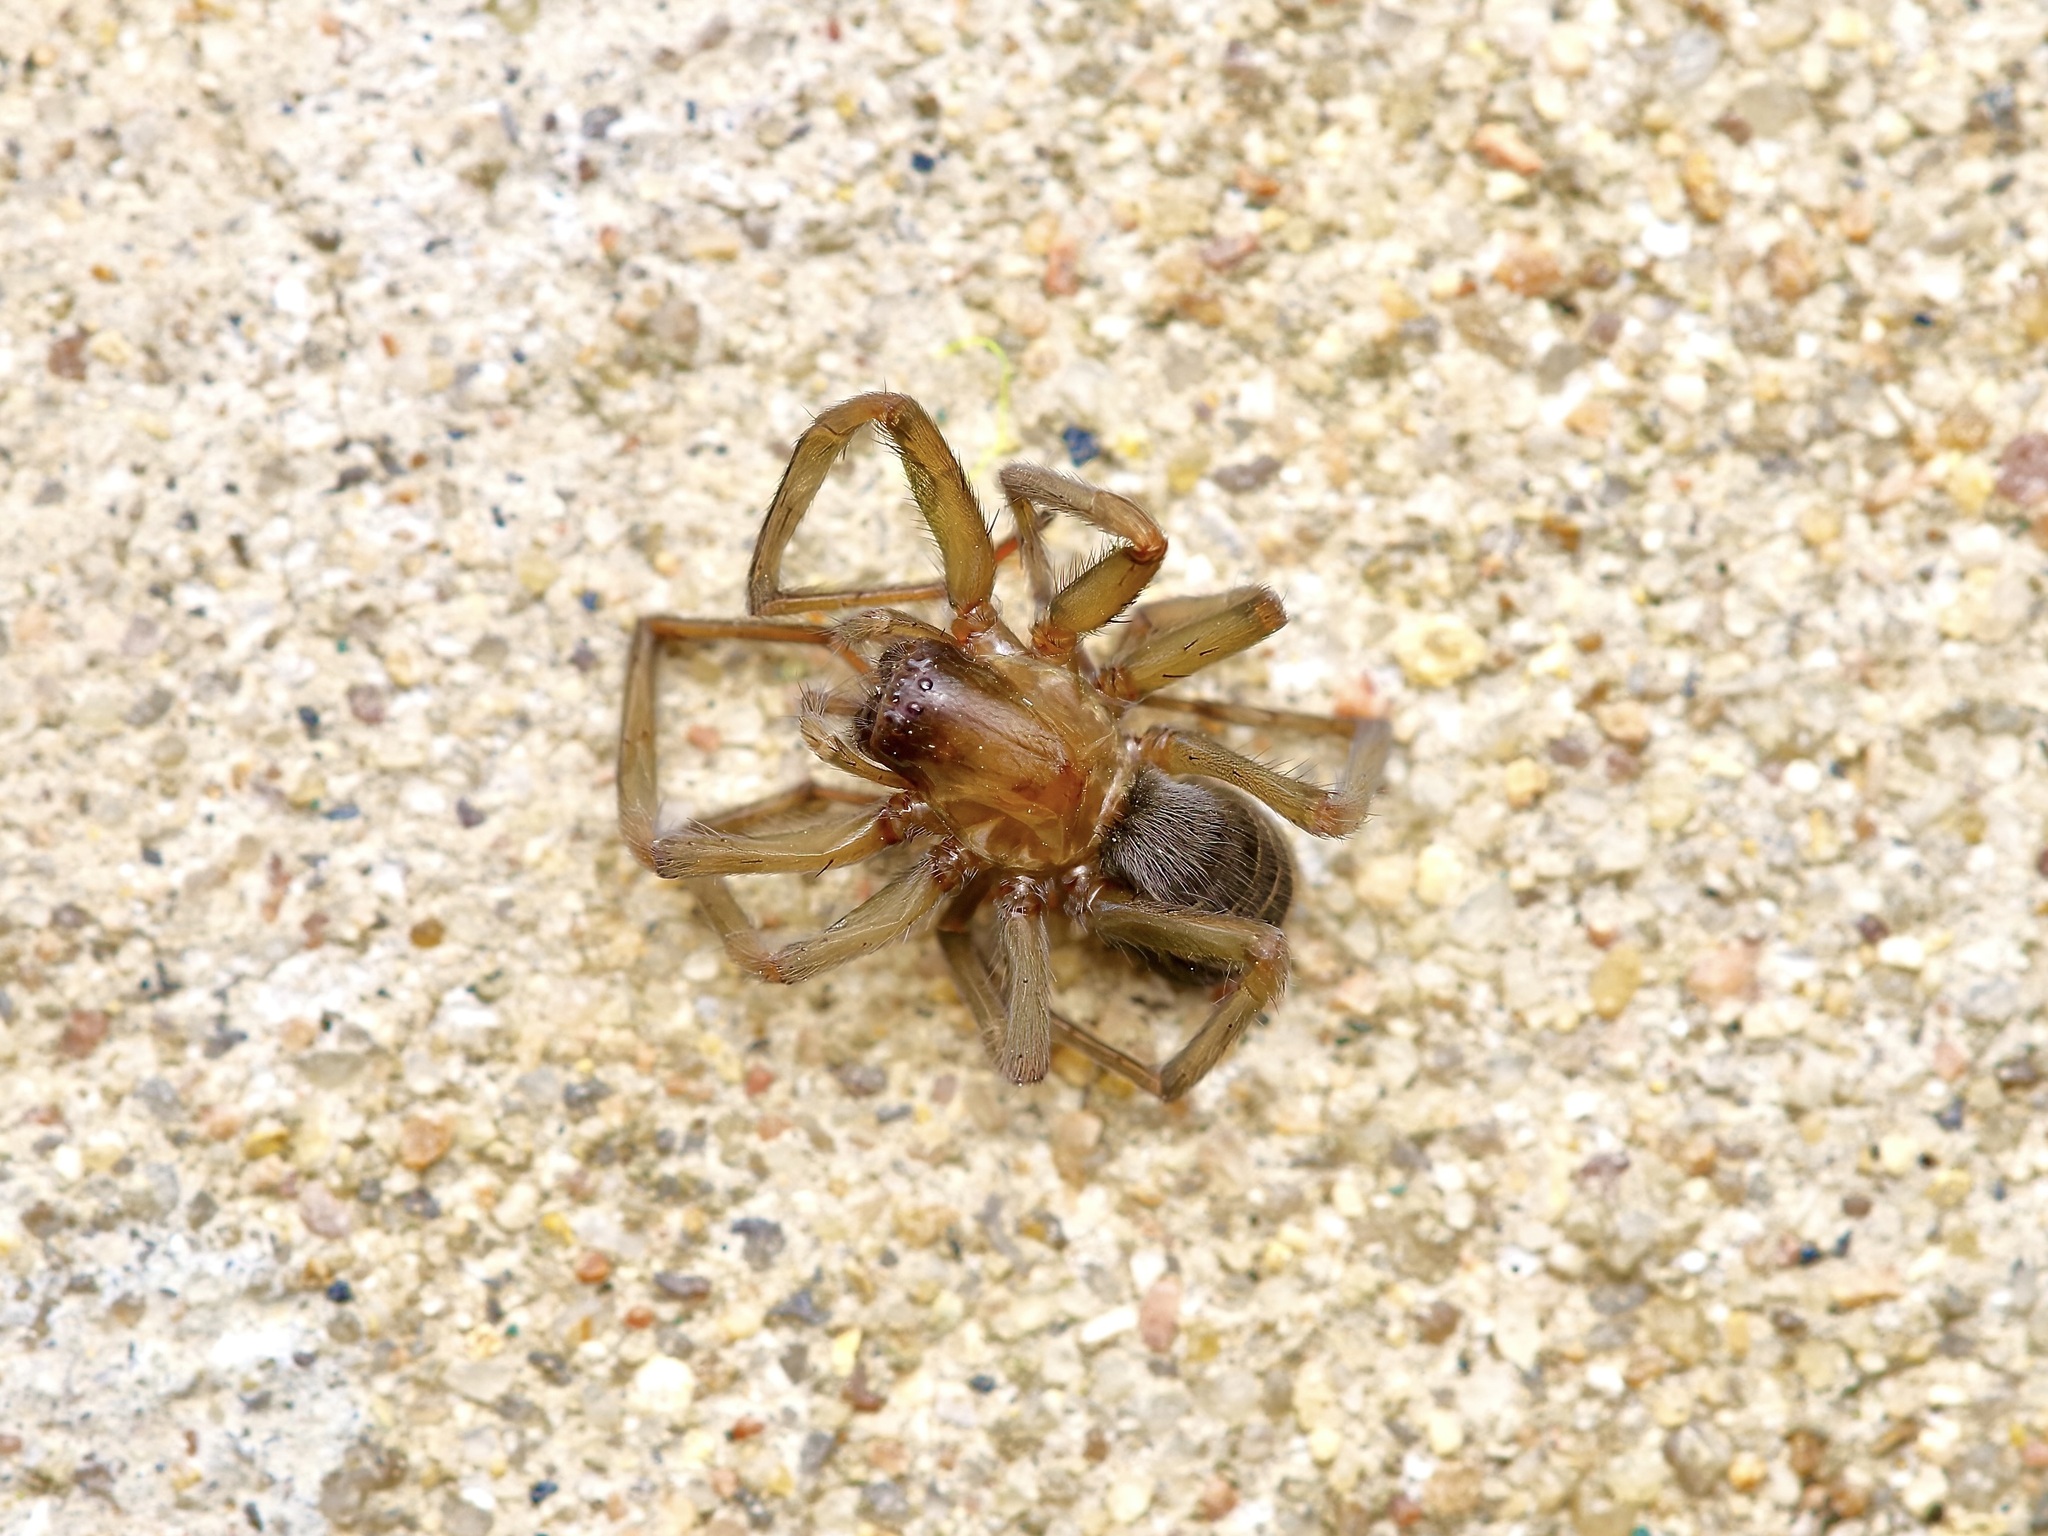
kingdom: Animalia
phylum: Arthropoda
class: Arachnida
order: Araneae
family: Desidae
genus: Metaltella
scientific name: Metaltella simoni
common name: Cribellate spider
